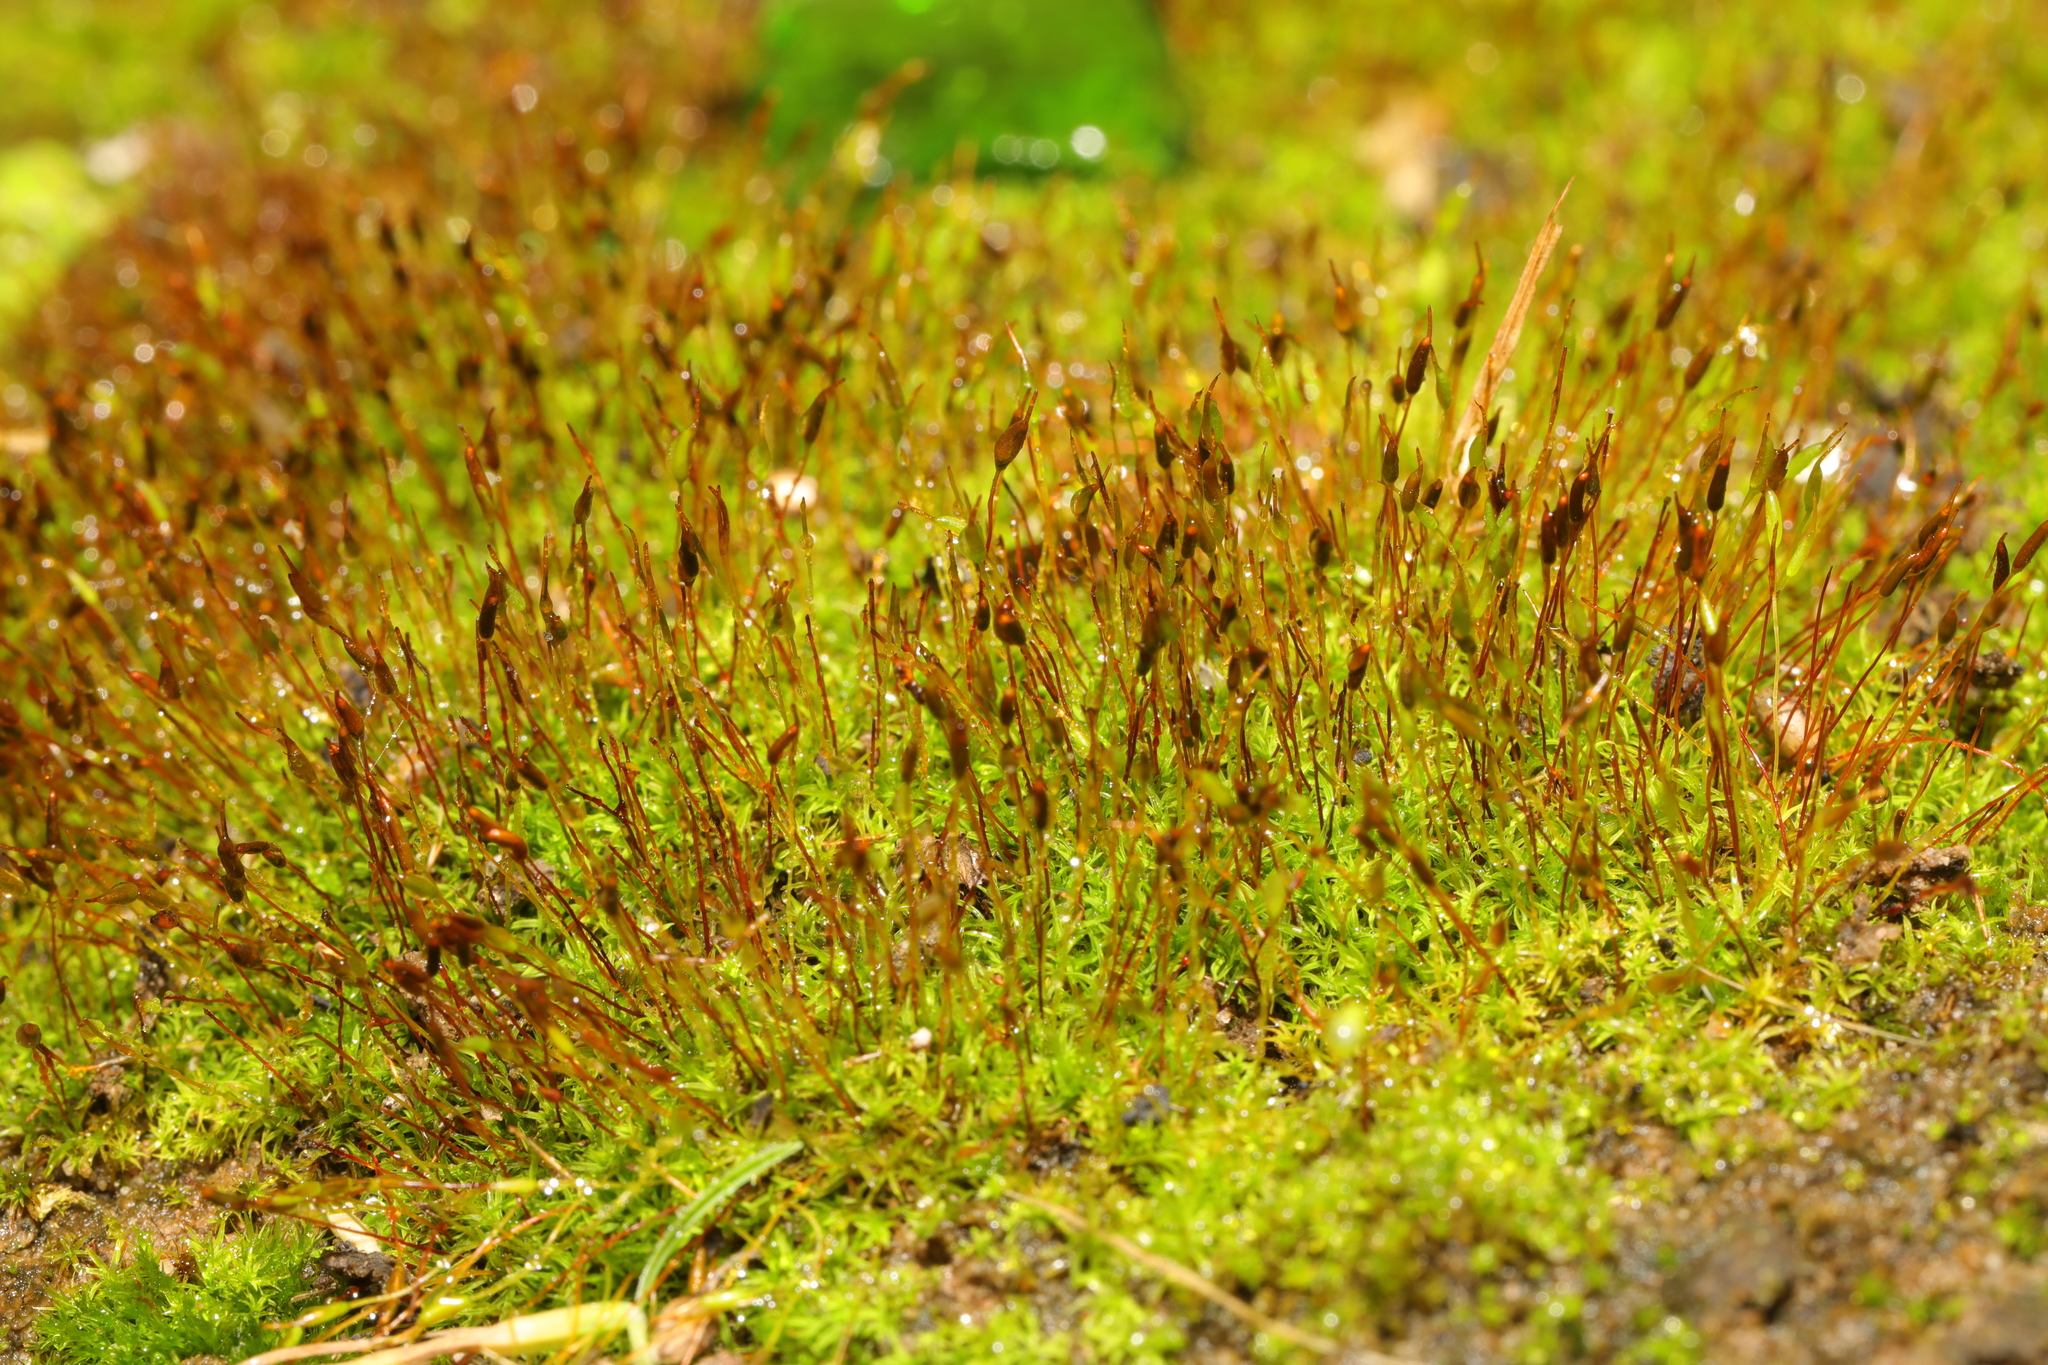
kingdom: Plantae
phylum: Bryophyta
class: Bryopsida
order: Dicranales
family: Ditrichaceae
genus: Ceratodon
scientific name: Ceratodon purpureus
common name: Redshank
